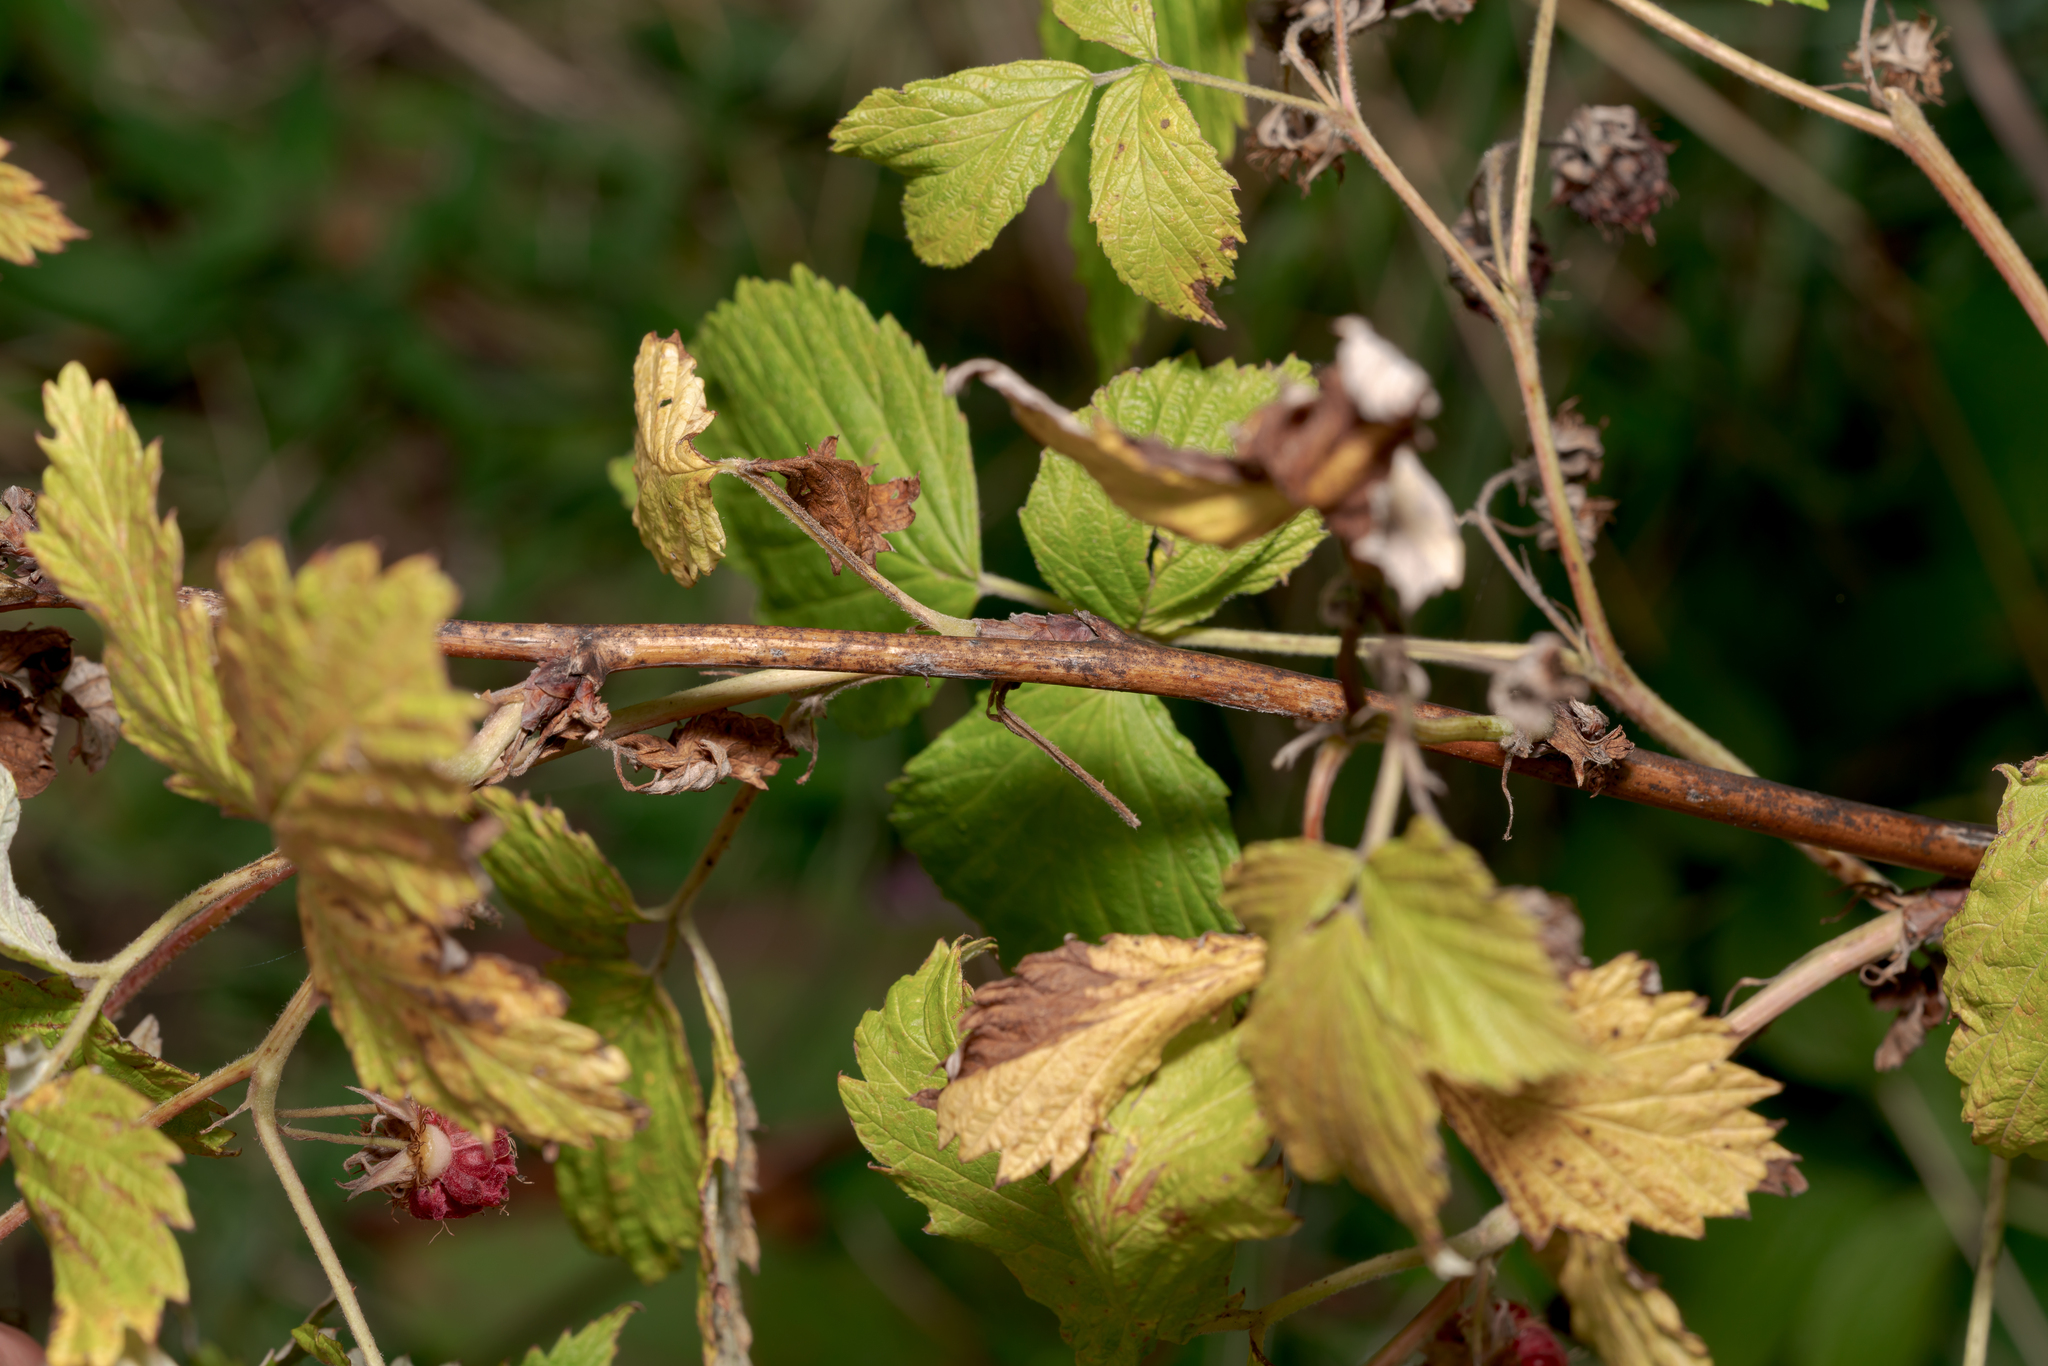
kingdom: Plantae
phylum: Tracheophyta
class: Magnoliopsida
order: Rosales
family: Rosaceae
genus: Rubus
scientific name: Rubus idaeus
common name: Raspberry
